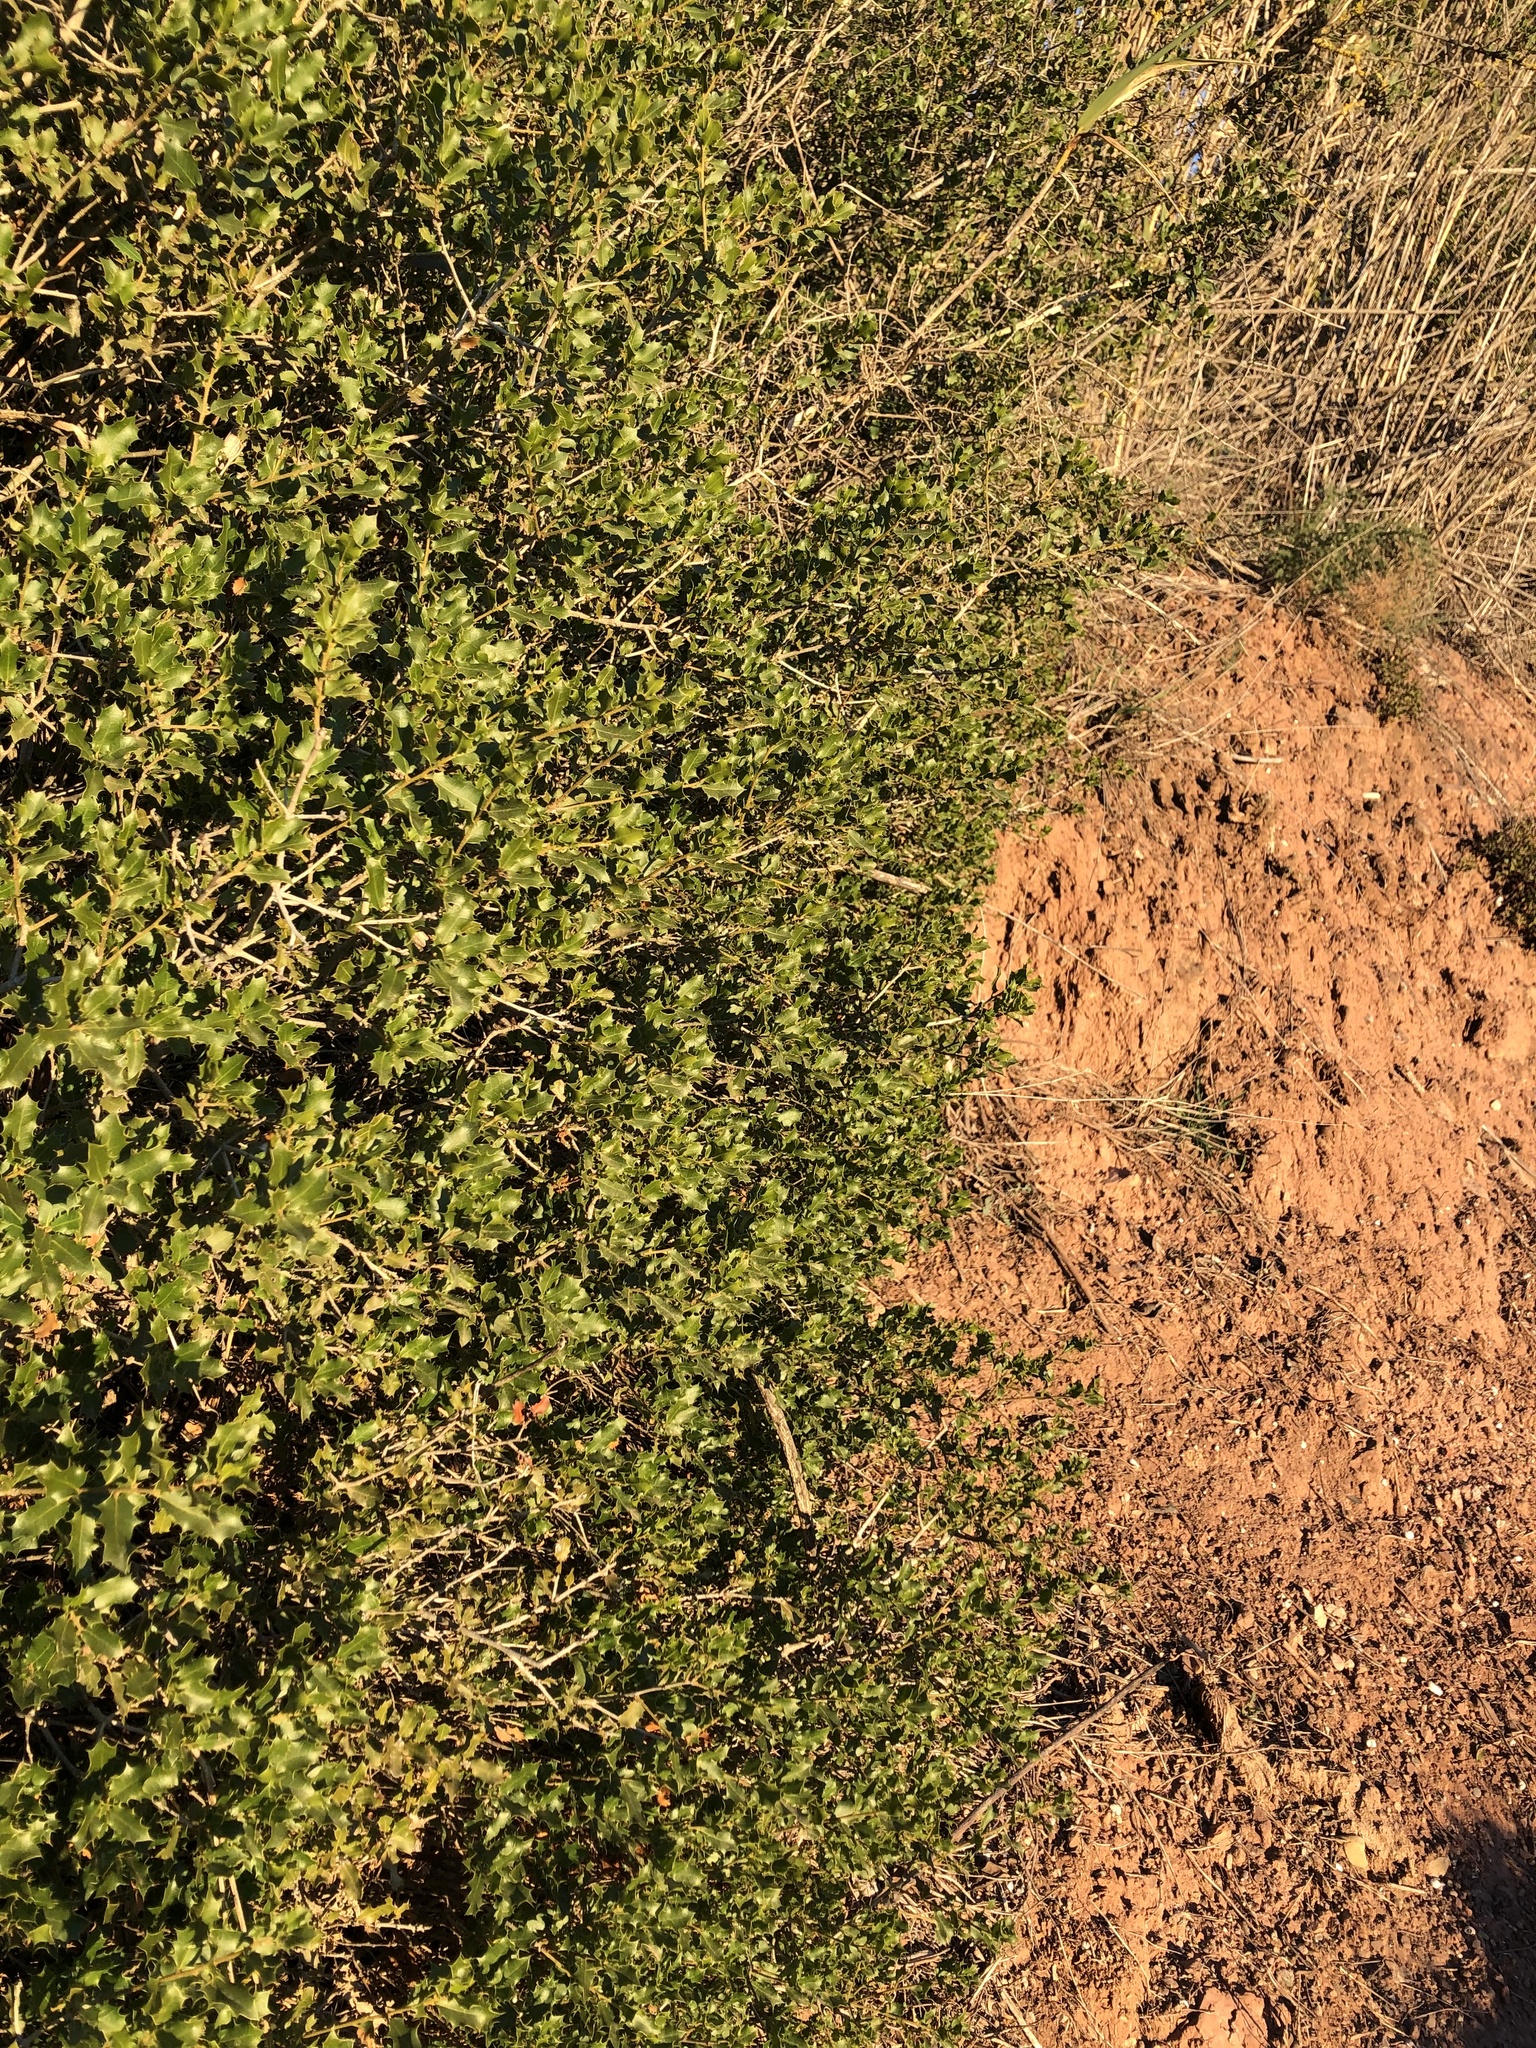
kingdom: Plantae
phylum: Tracheophyta
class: Magnoliopsida
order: Fagales
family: Fagaceae
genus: Quercus
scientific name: Quercus coccifera
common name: Kermes oak
